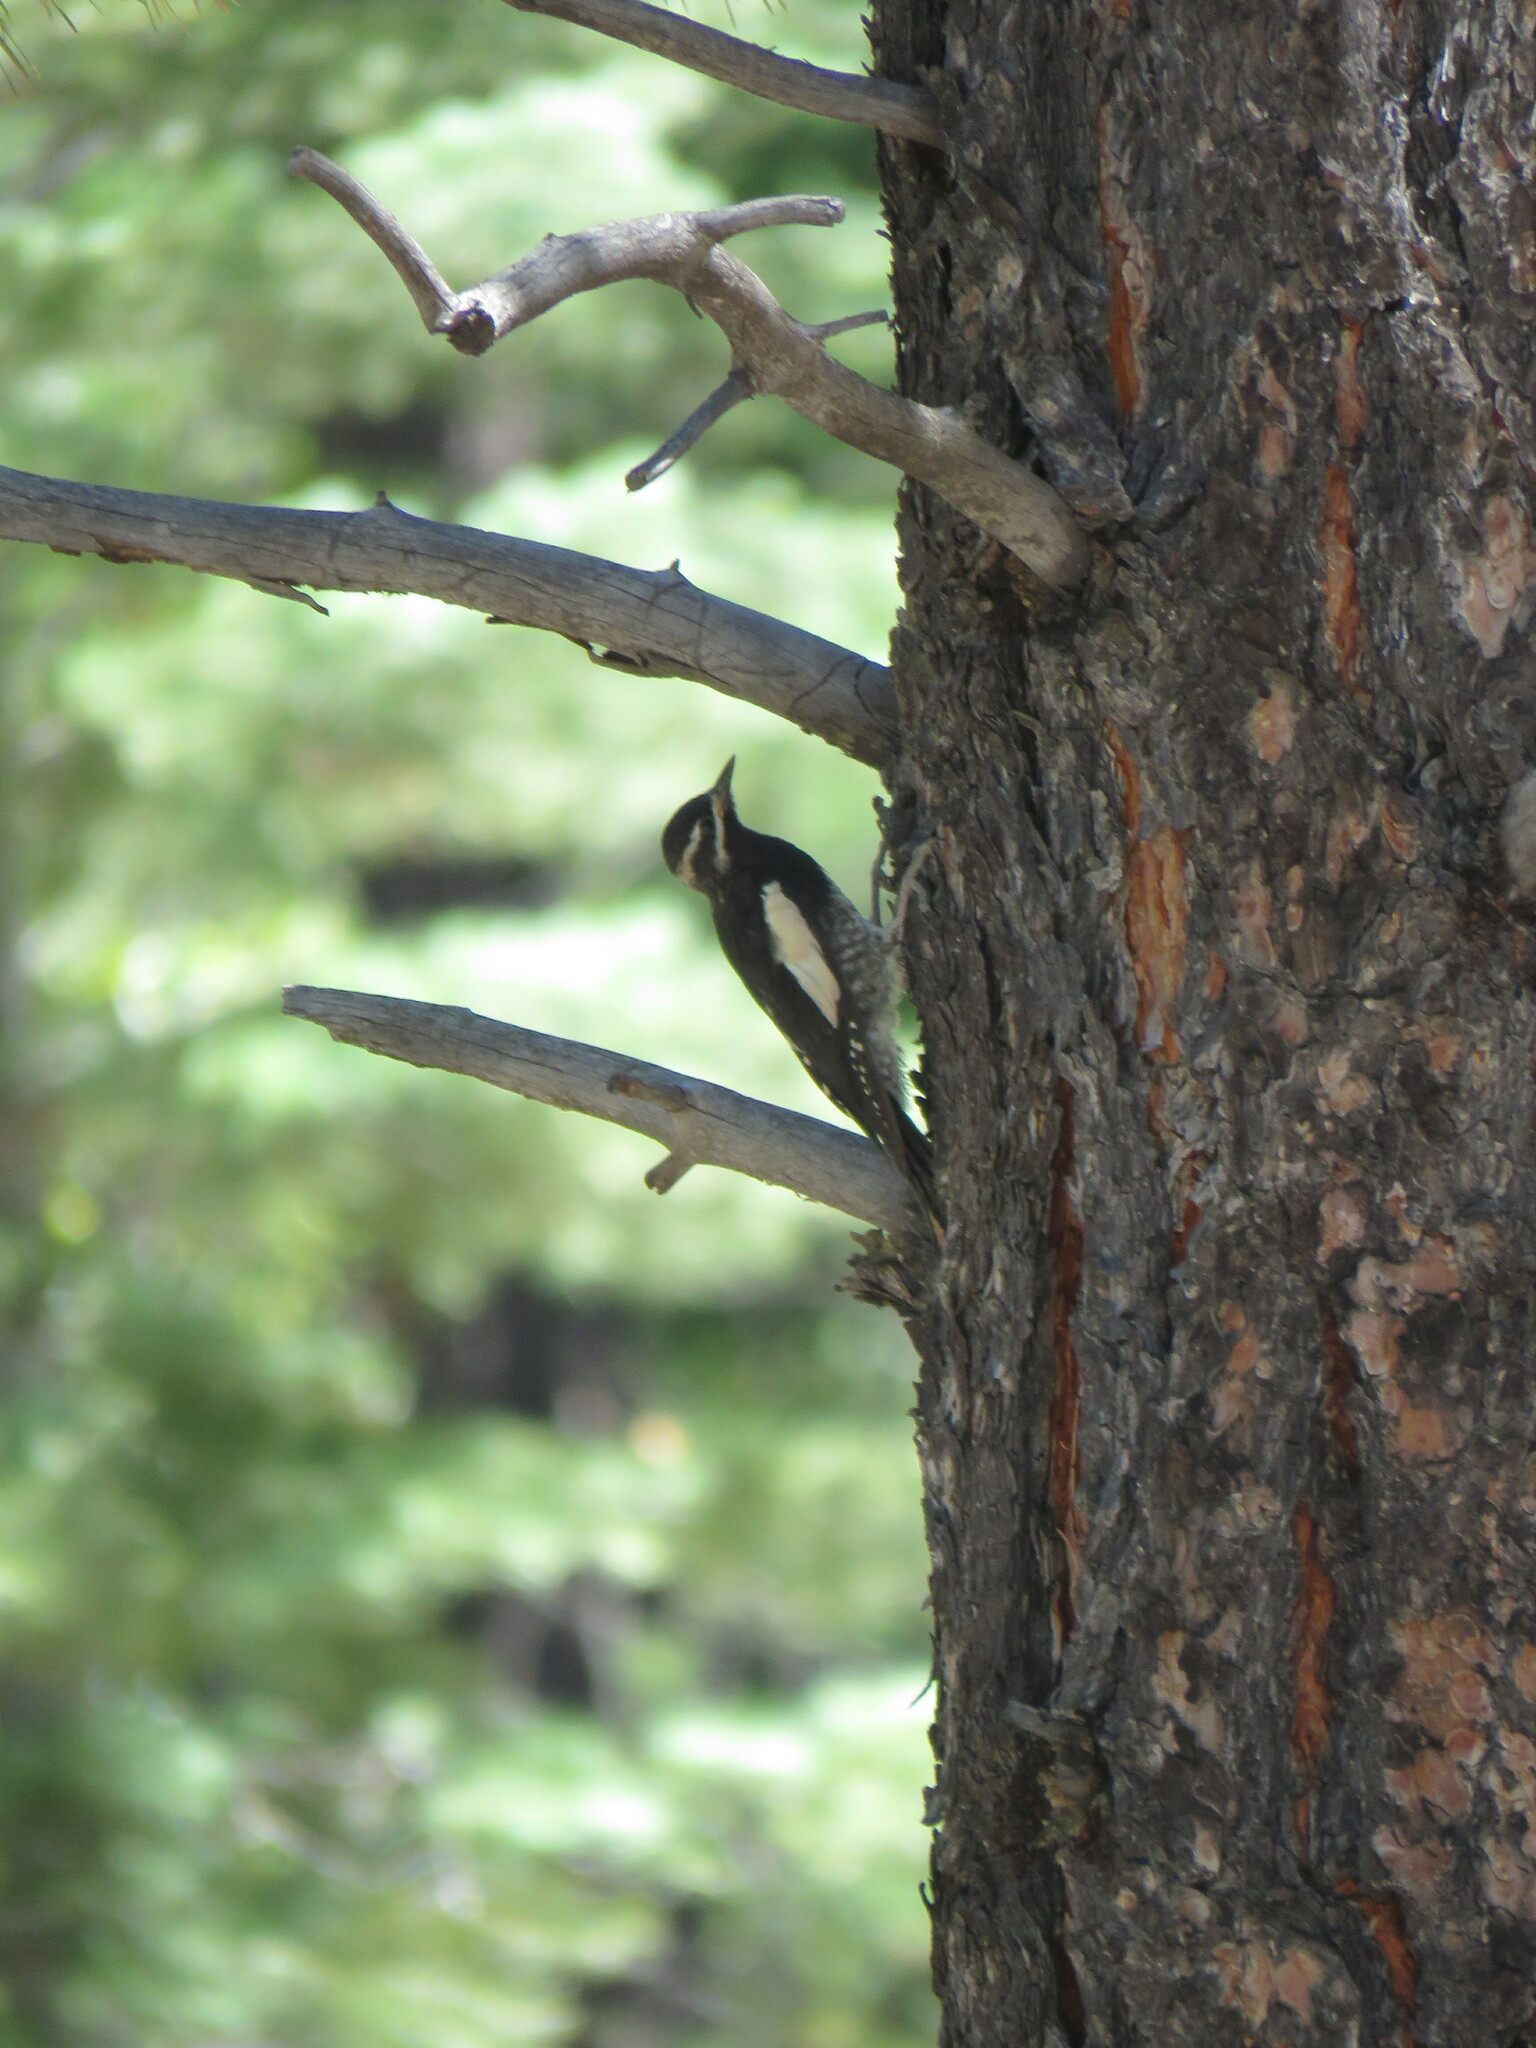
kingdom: Animalia
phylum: Chordata
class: Aves
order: Piciformes
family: Picidae
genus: Sphyrapicus
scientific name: Sphyrapicus thyroideus
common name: Williamson's sapsucker
